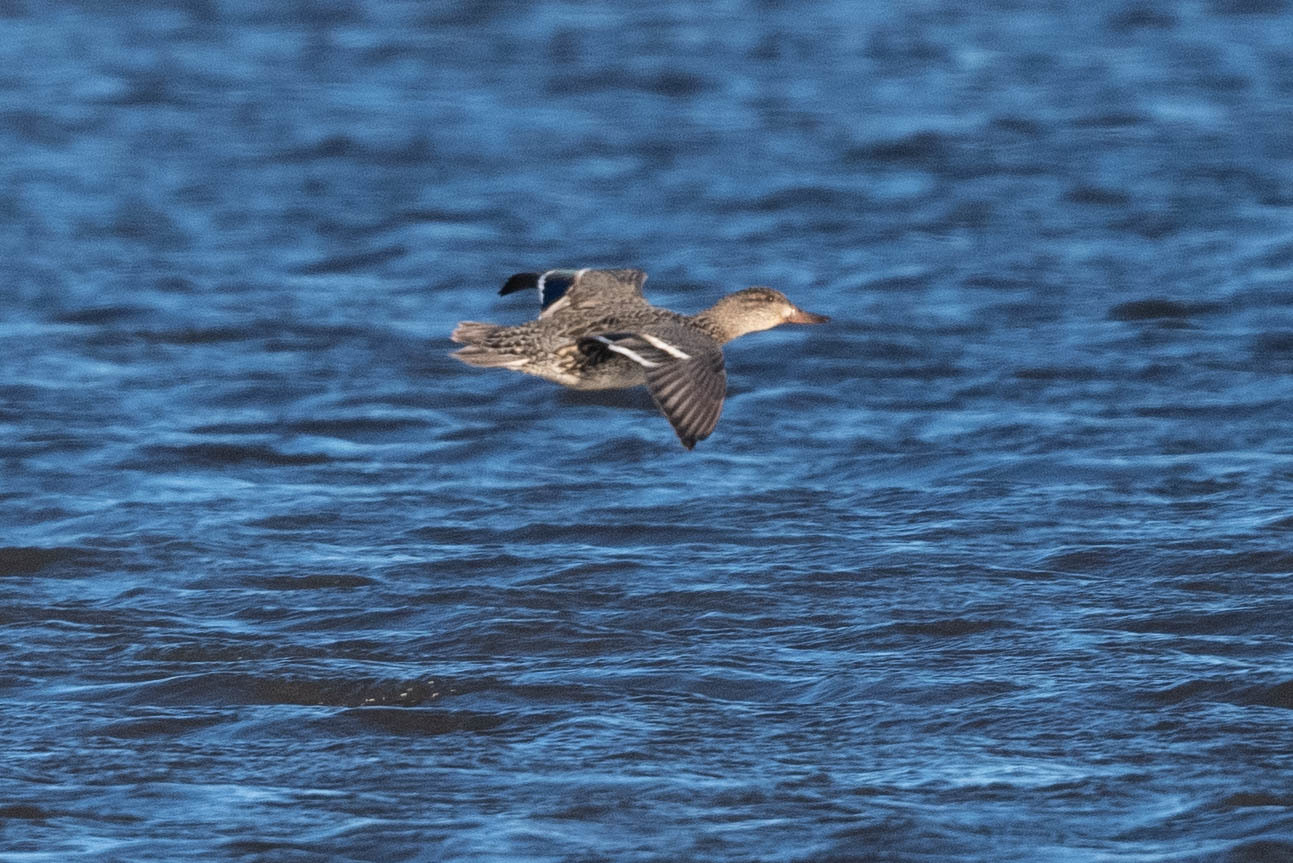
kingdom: Animalia
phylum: Chordata
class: Aves
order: Anseriformes
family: Anatidae
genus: Anas
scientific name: Anas platyrhynchos
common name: Mallard
